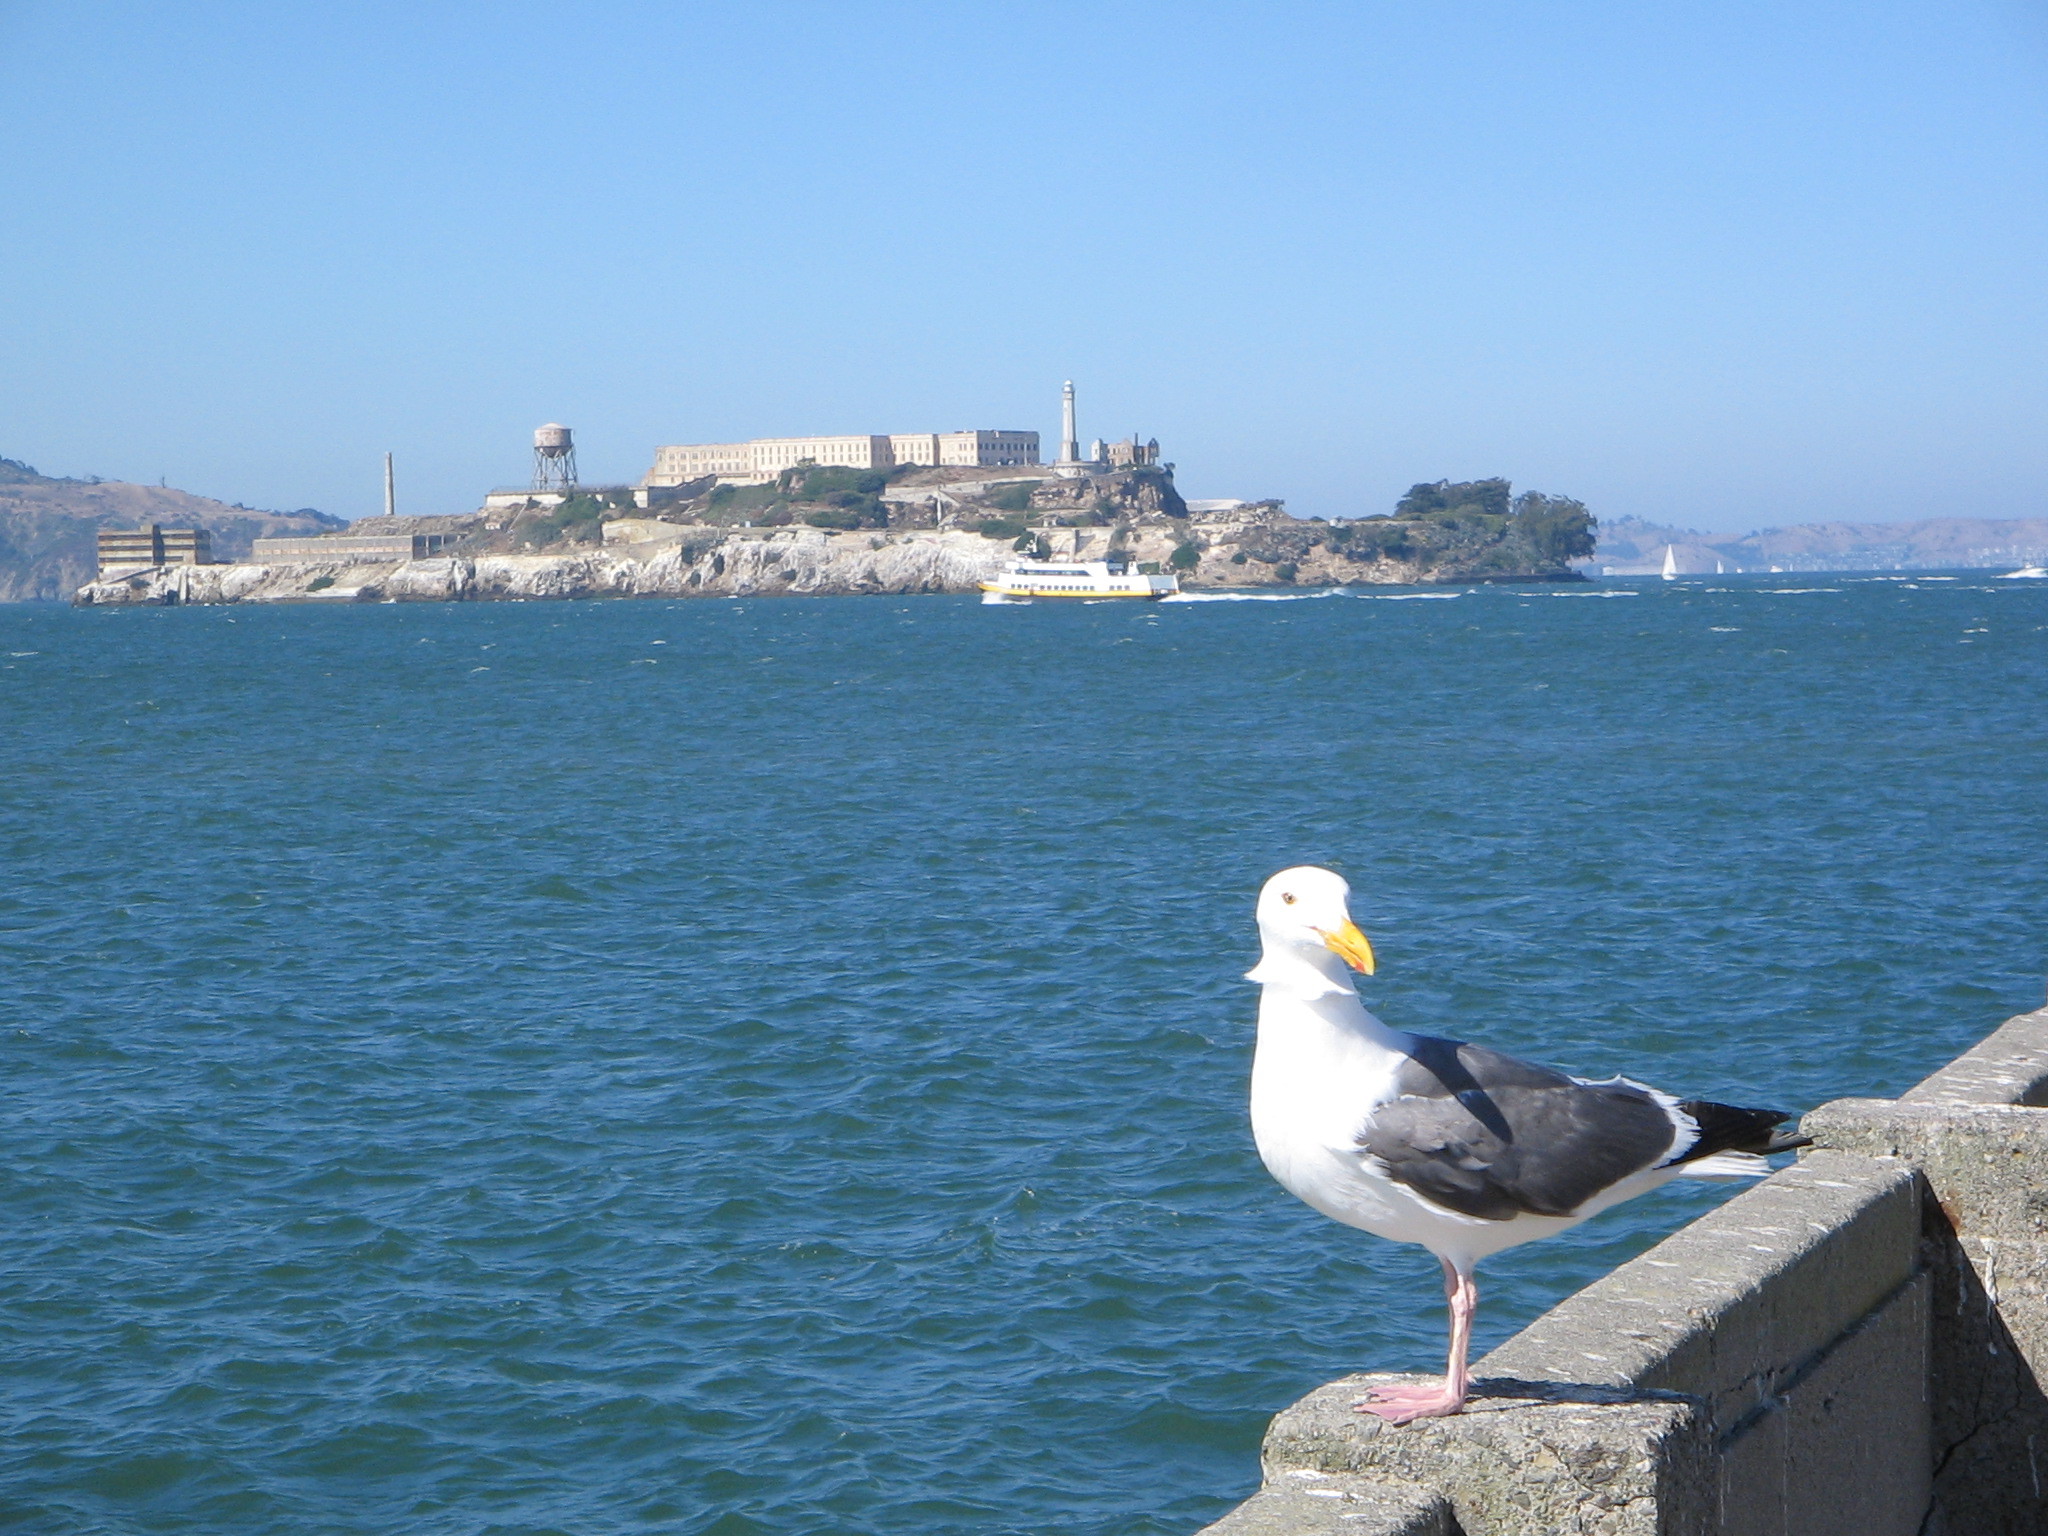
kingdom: Animalia
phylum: Chordata
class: Aves
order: Charadriiformes
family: Laridae
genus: Larus
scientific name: Larus occidentalis
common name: Western gull
